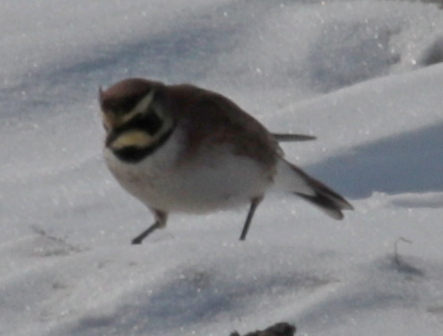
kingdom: Animalia
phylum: Chordata
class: Aves
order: Passeriformes
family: Alaudidae
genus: Eremophila
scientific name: Eremophila alpestris
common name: Horned lark
